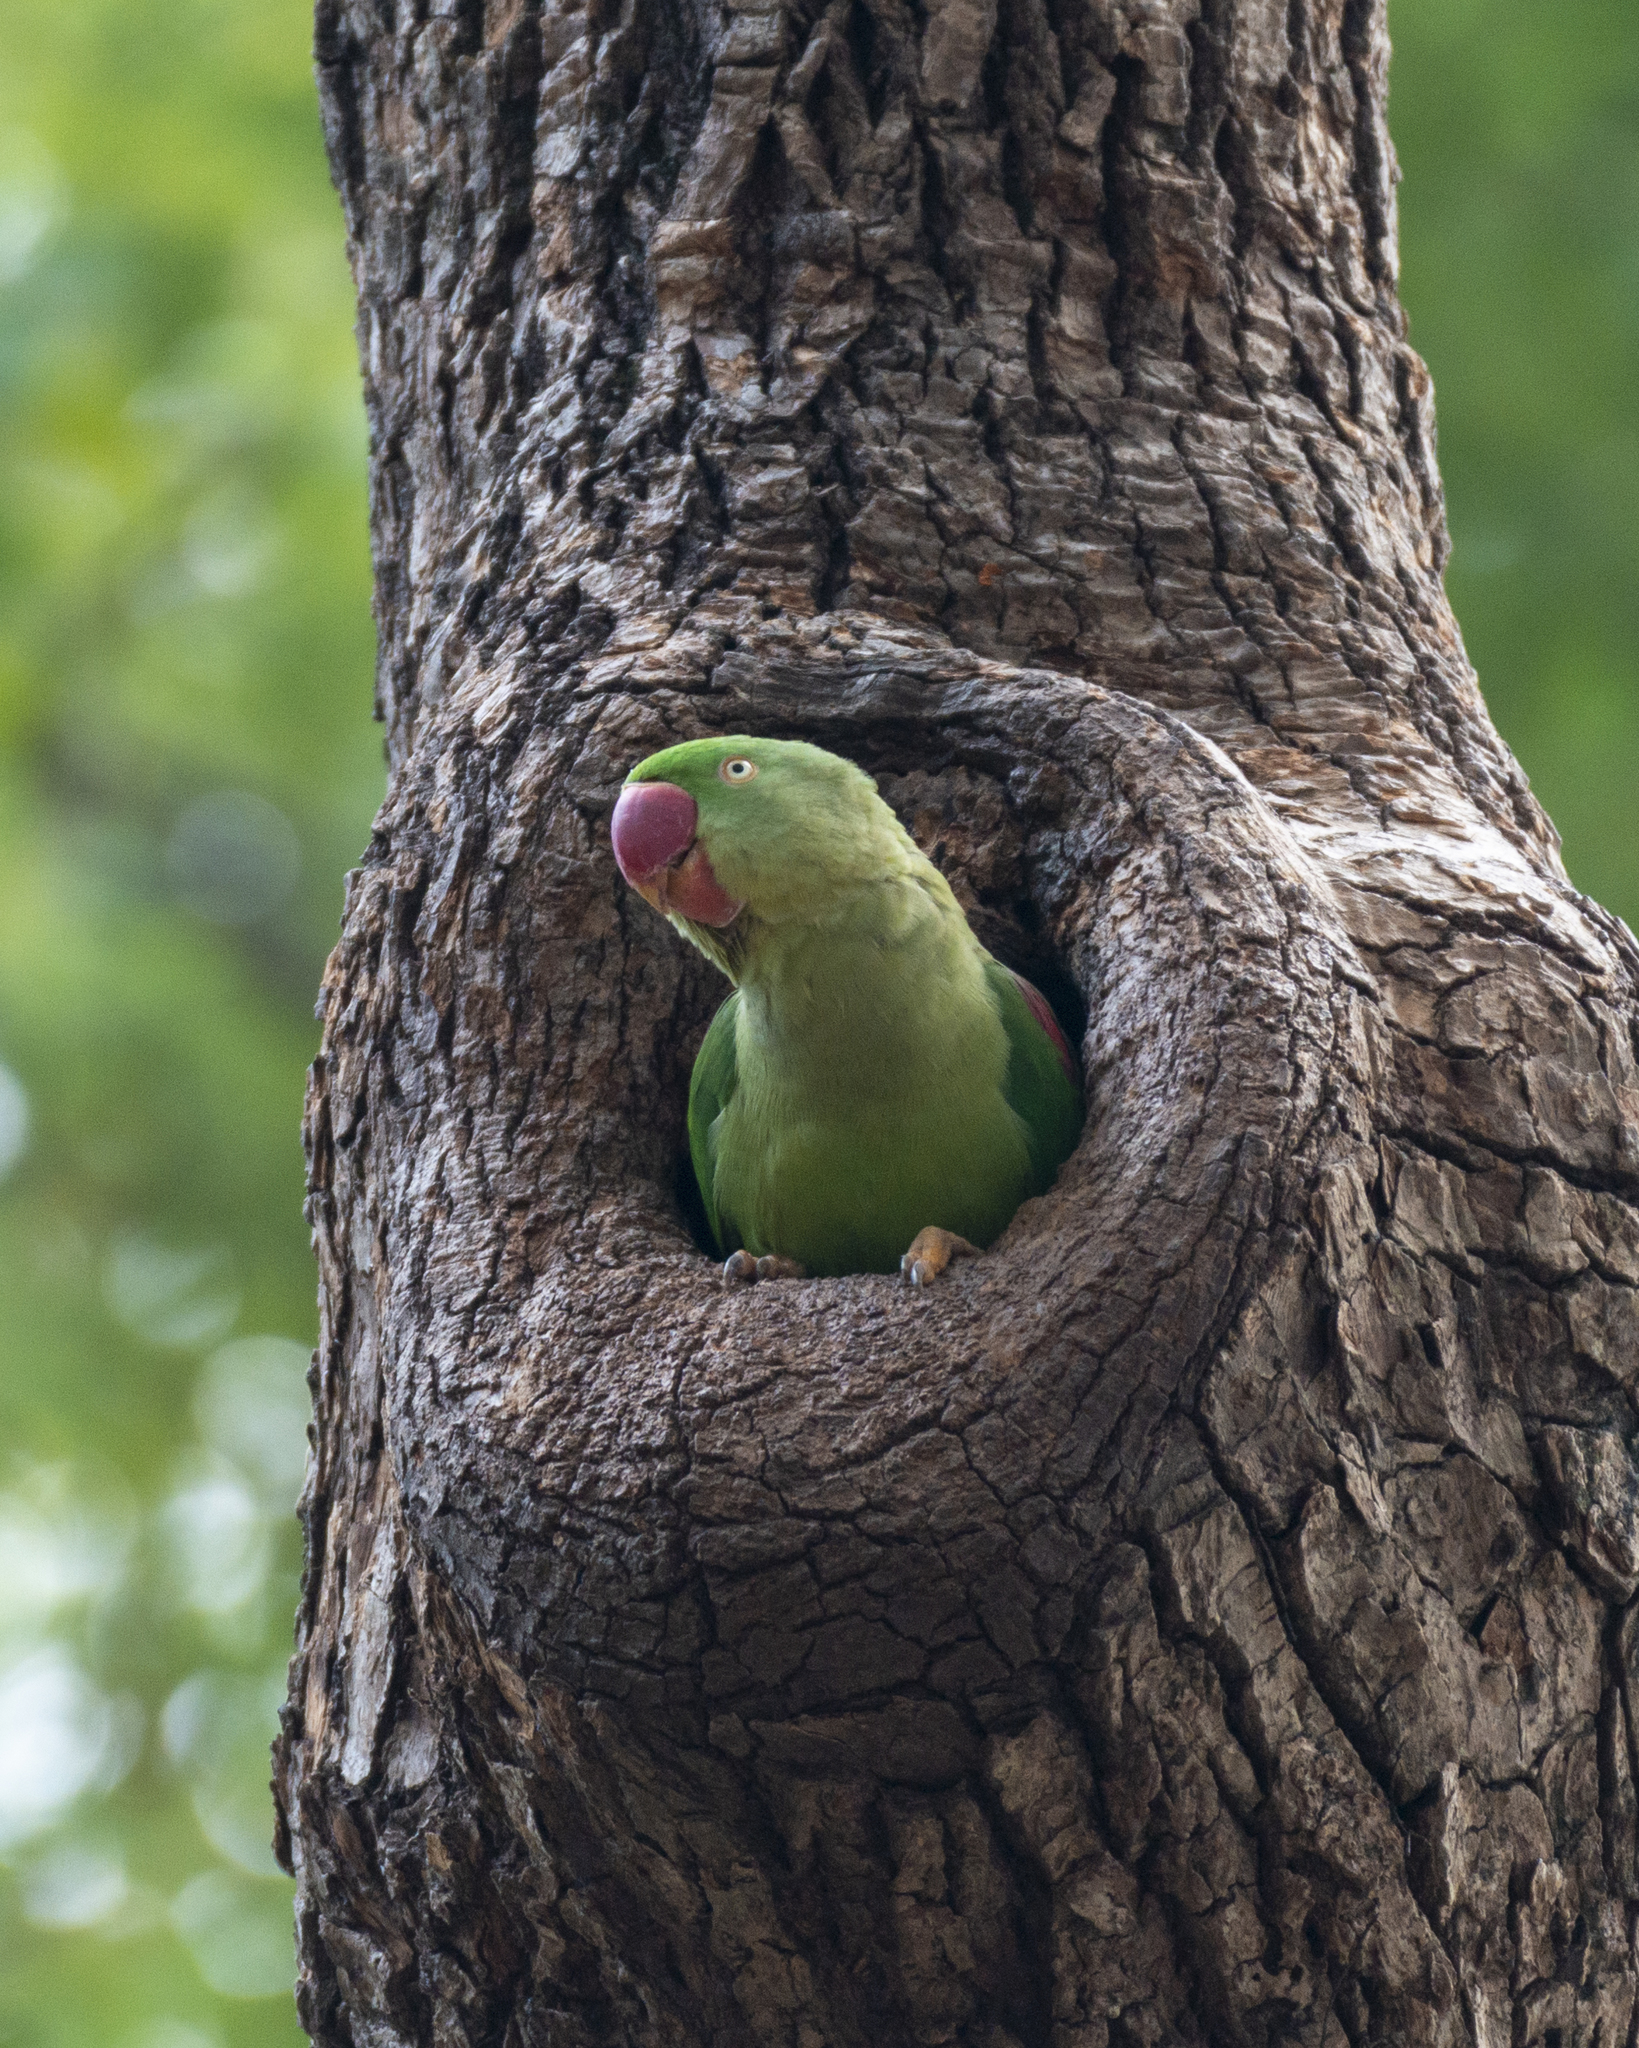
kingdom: Animalia
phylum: Chordata
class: Aves
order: Psittaciformes
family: Psittacidae
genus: Psittacula
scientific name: Psittacula eupatria
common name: Alexandrine parakeet
